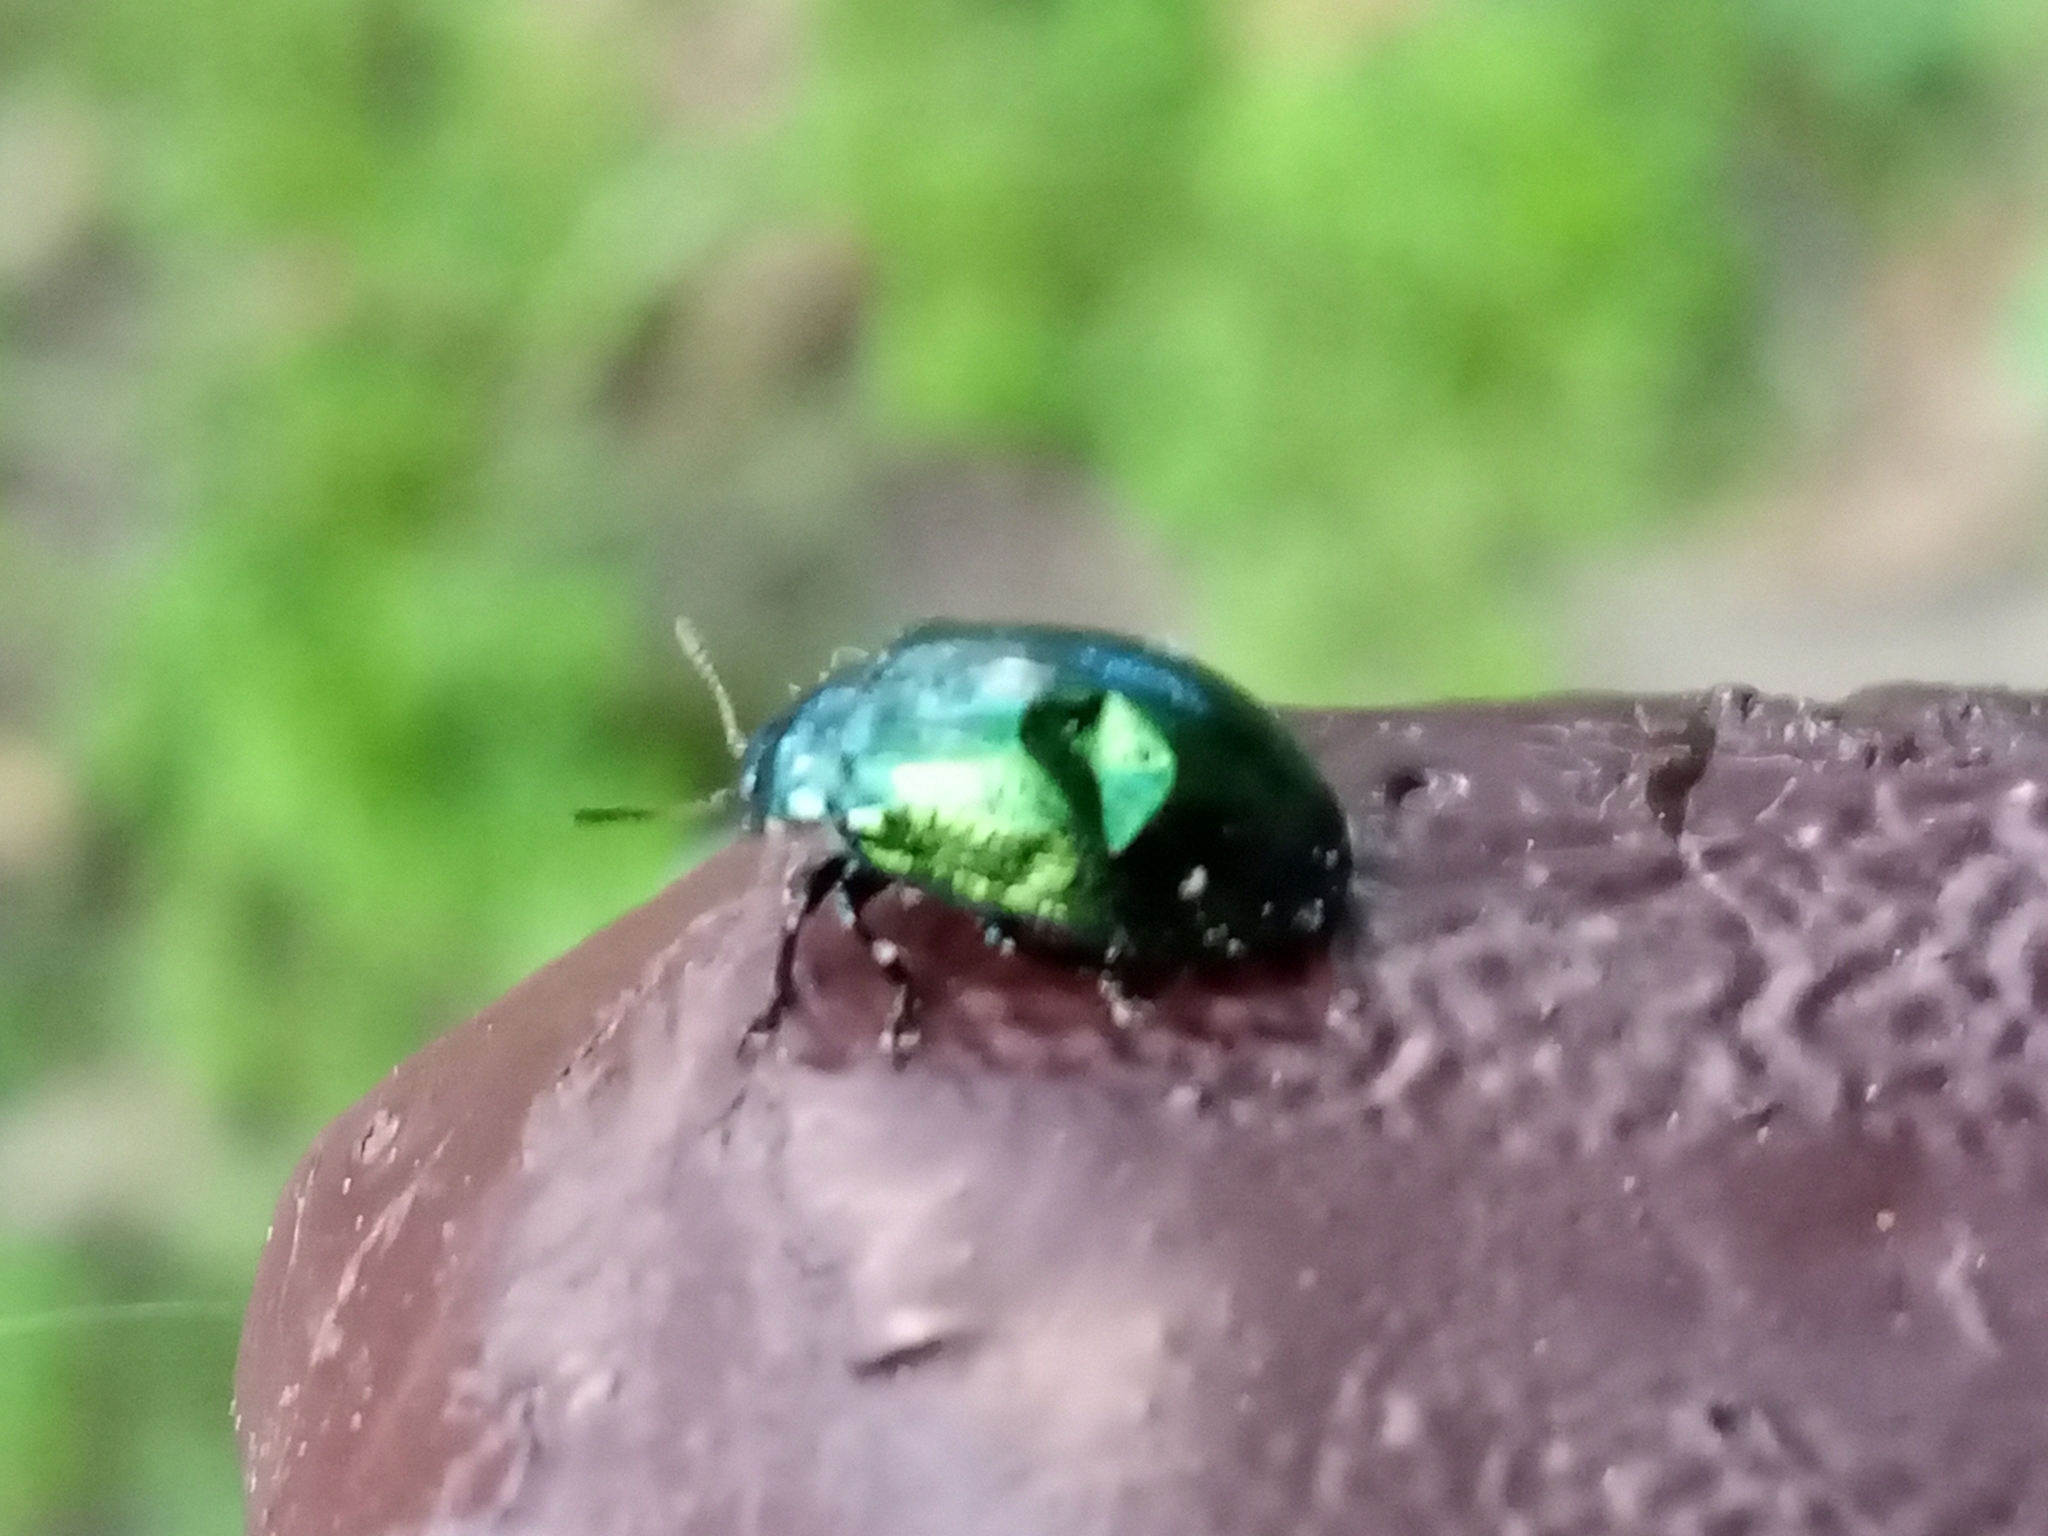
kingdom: Animalia
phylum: Arthropoda
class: Insecta
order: Coleoptera
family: Chrysomelidae
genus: Plagiosterna
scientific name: Plagiosterna aenea
